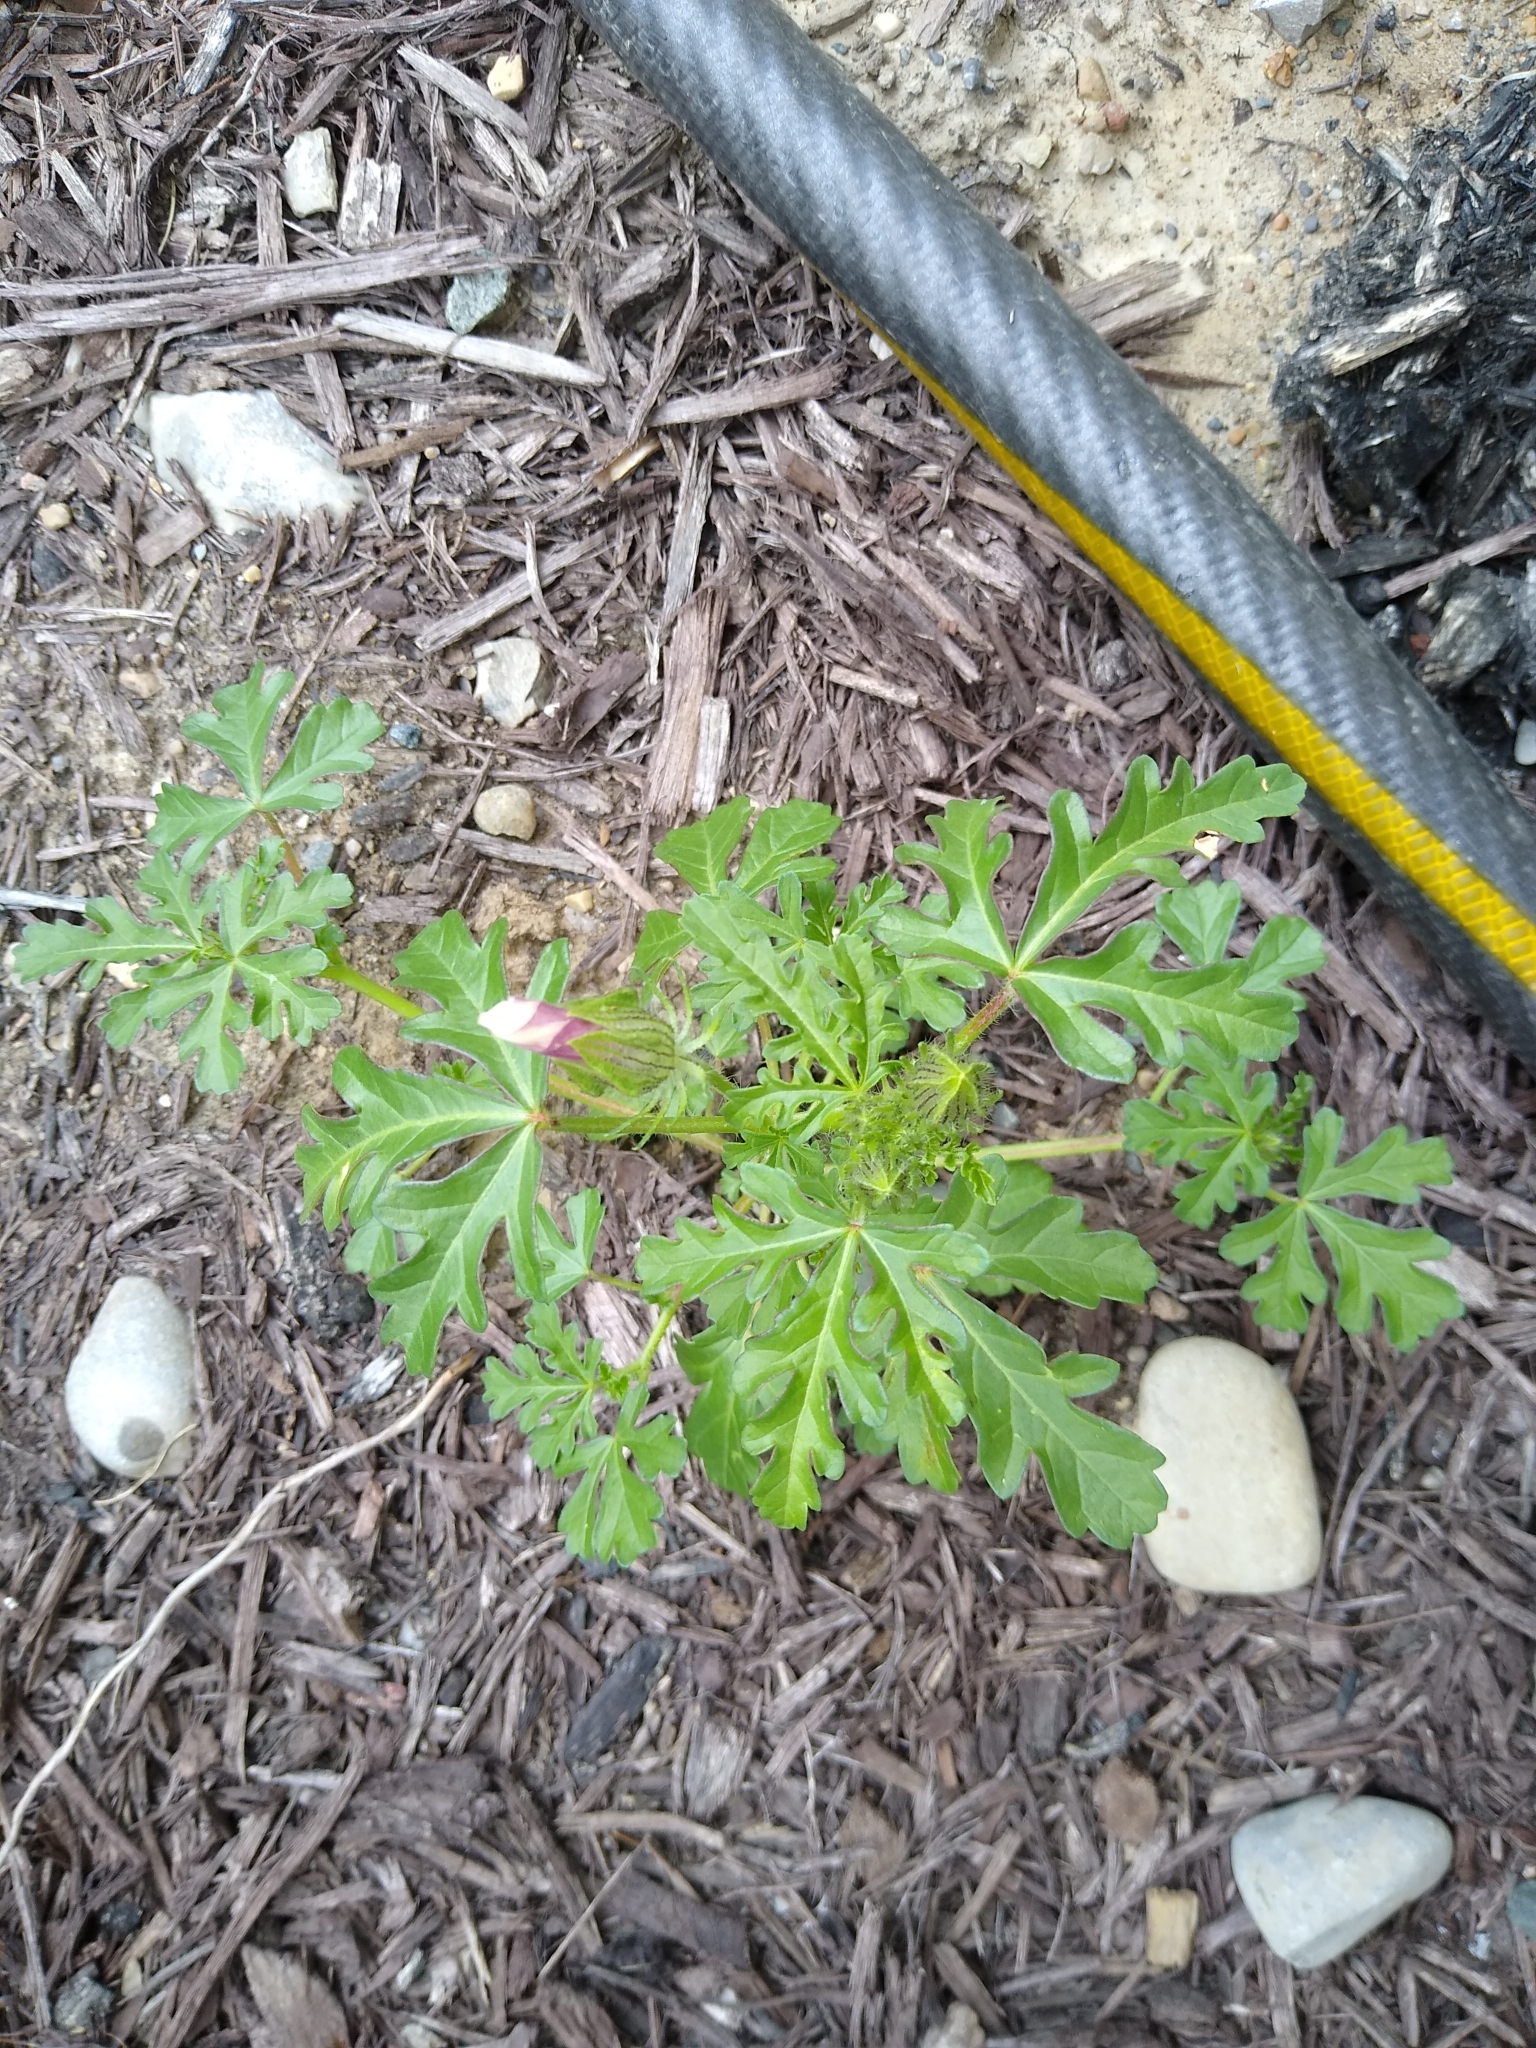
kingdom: Plantae
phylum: Tracheophyta
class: Magnoliopsida
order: Malvales
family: Malvaceae
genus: Hibiscus
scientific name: Hibiscus trionum
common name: Bladder ketmia
